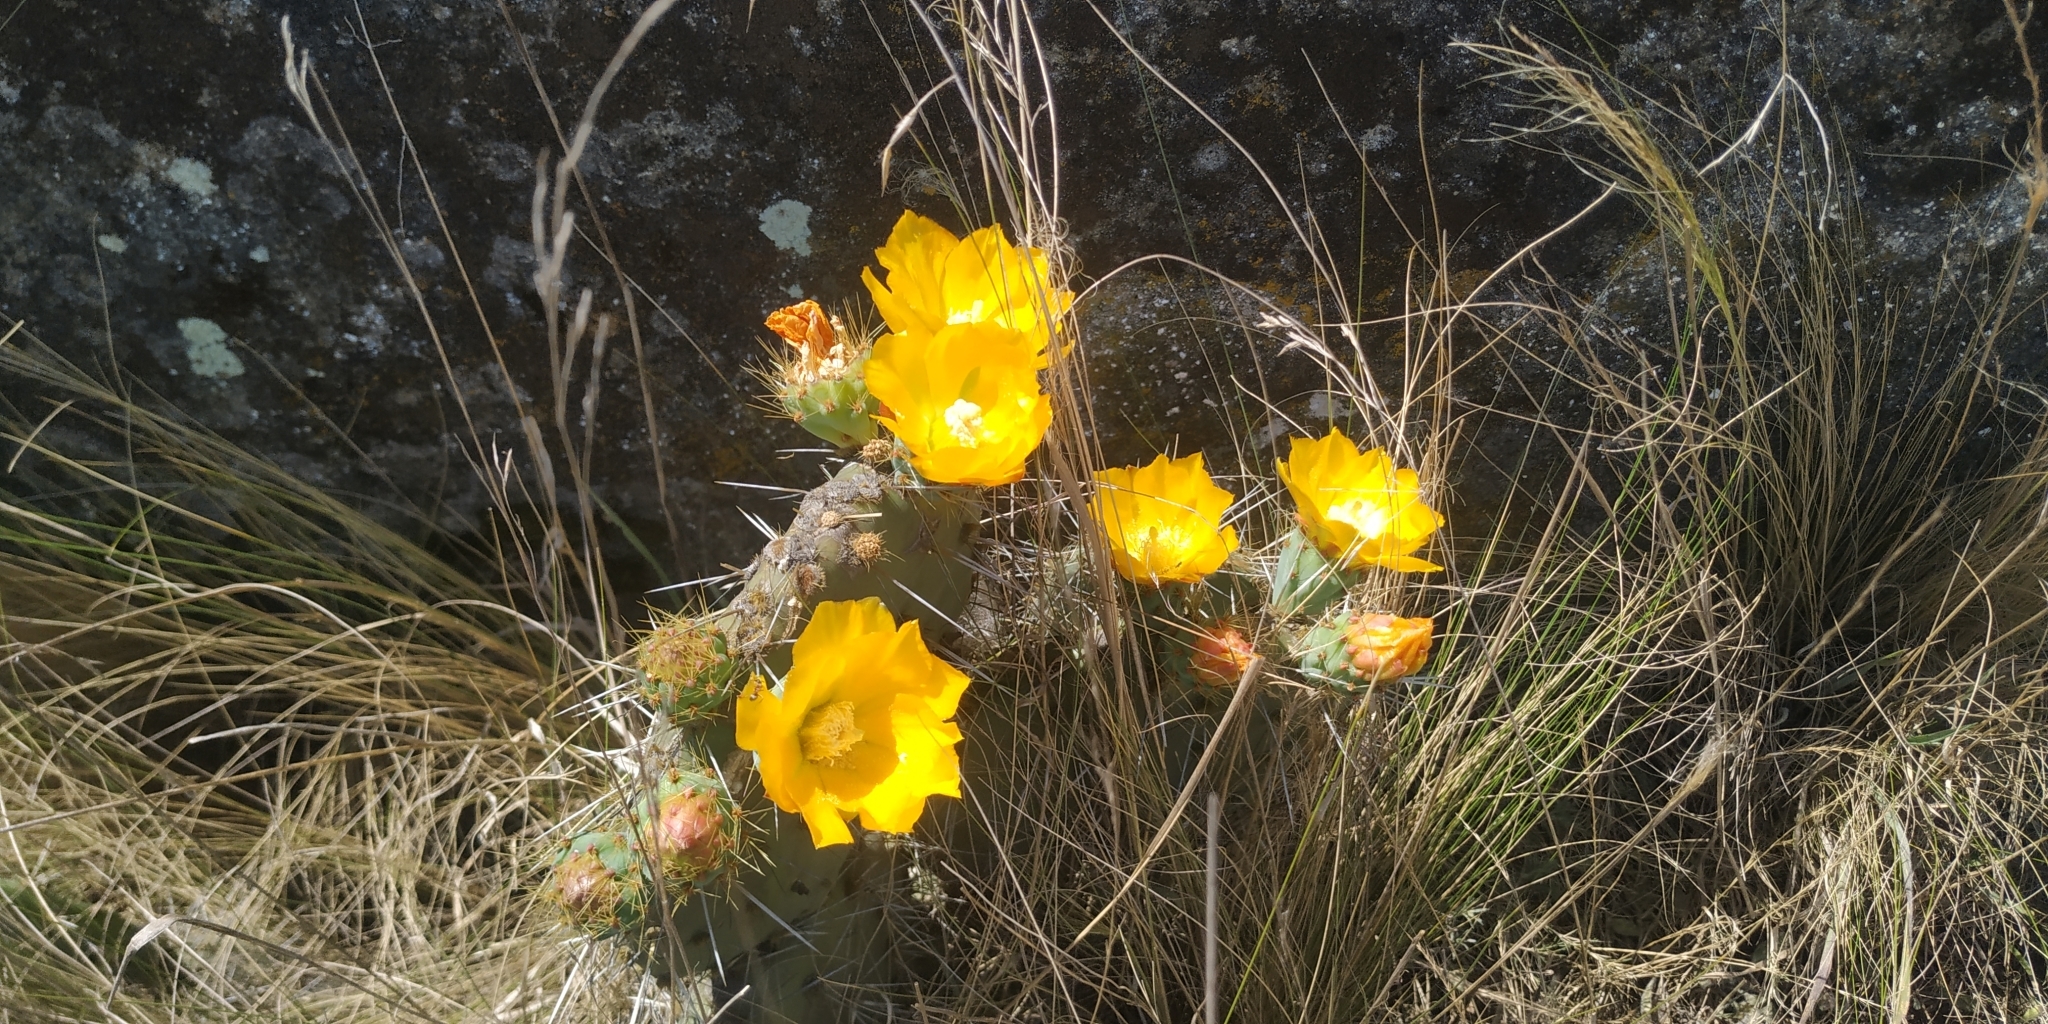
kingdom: Plantae
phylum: Tracheophyta
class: Magnoliopsida
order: Caryophyllales
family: Cactaceae
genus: Opuntia
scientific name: Opuntia robusta
